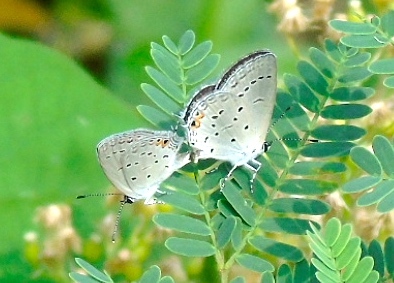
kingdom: Animalia
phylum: Arthropoda
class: Insecta
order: Lepidoptera
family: Lycaenidae
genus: Elkalyce
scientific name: Elkalyce texana
